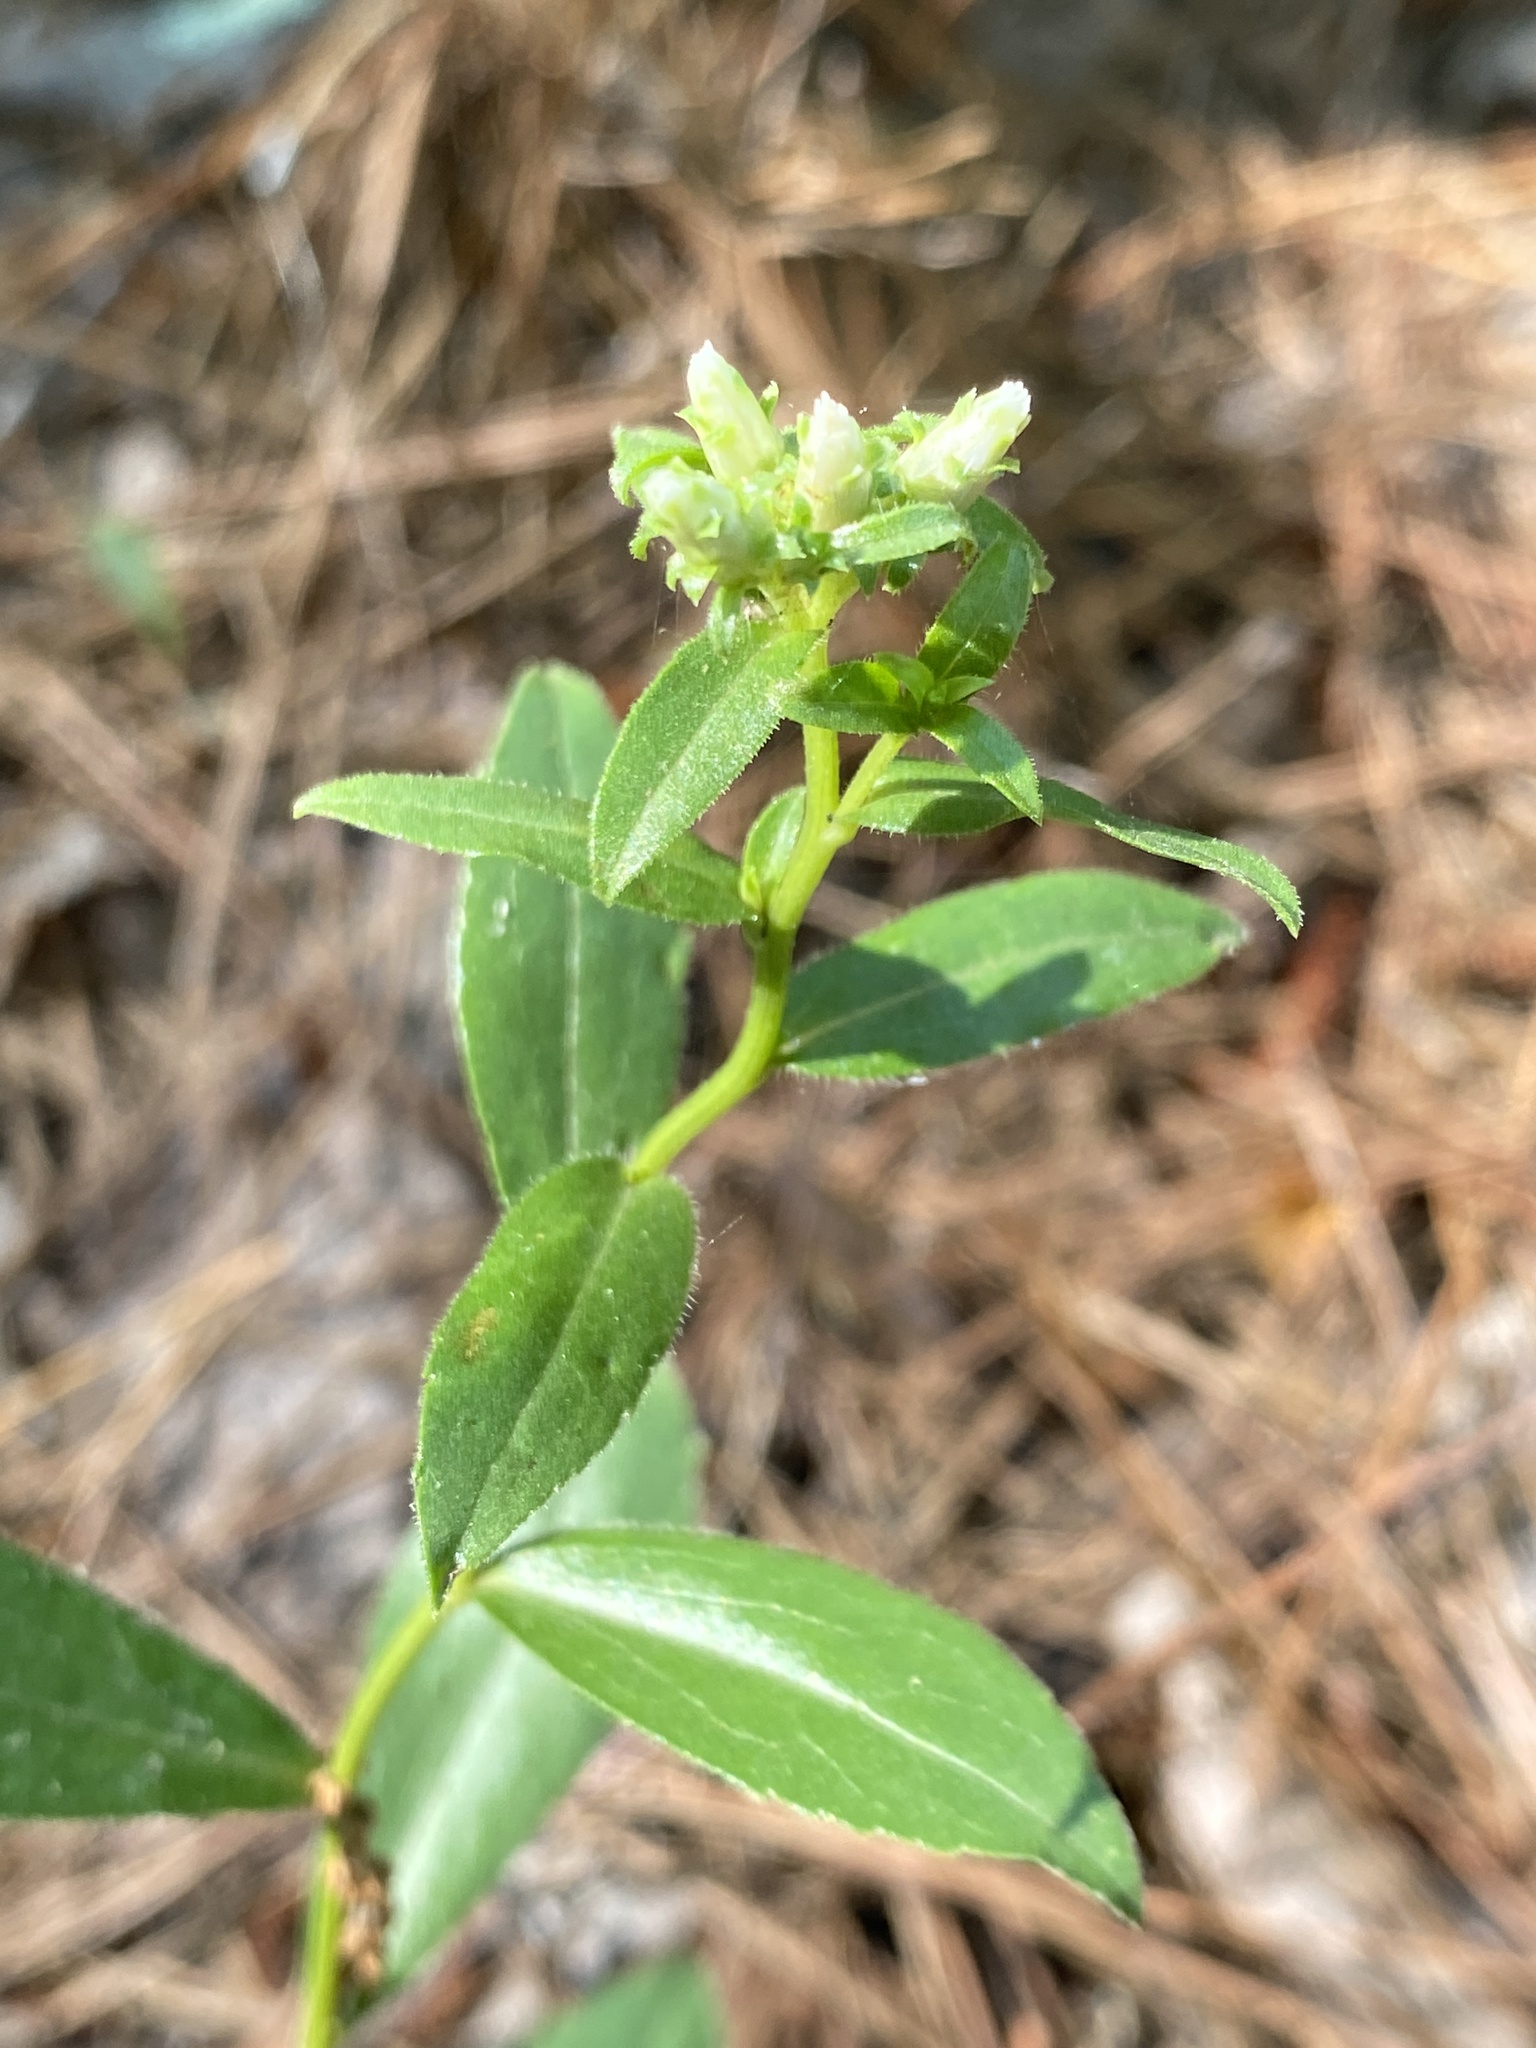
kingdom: Plantae
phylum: Tracheophyta
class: Magnoliopsida
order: Asterales
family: Asteraceae
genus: Sericocarpus
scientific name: Sericocarpus asteroides
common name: Toothed white-top aster
